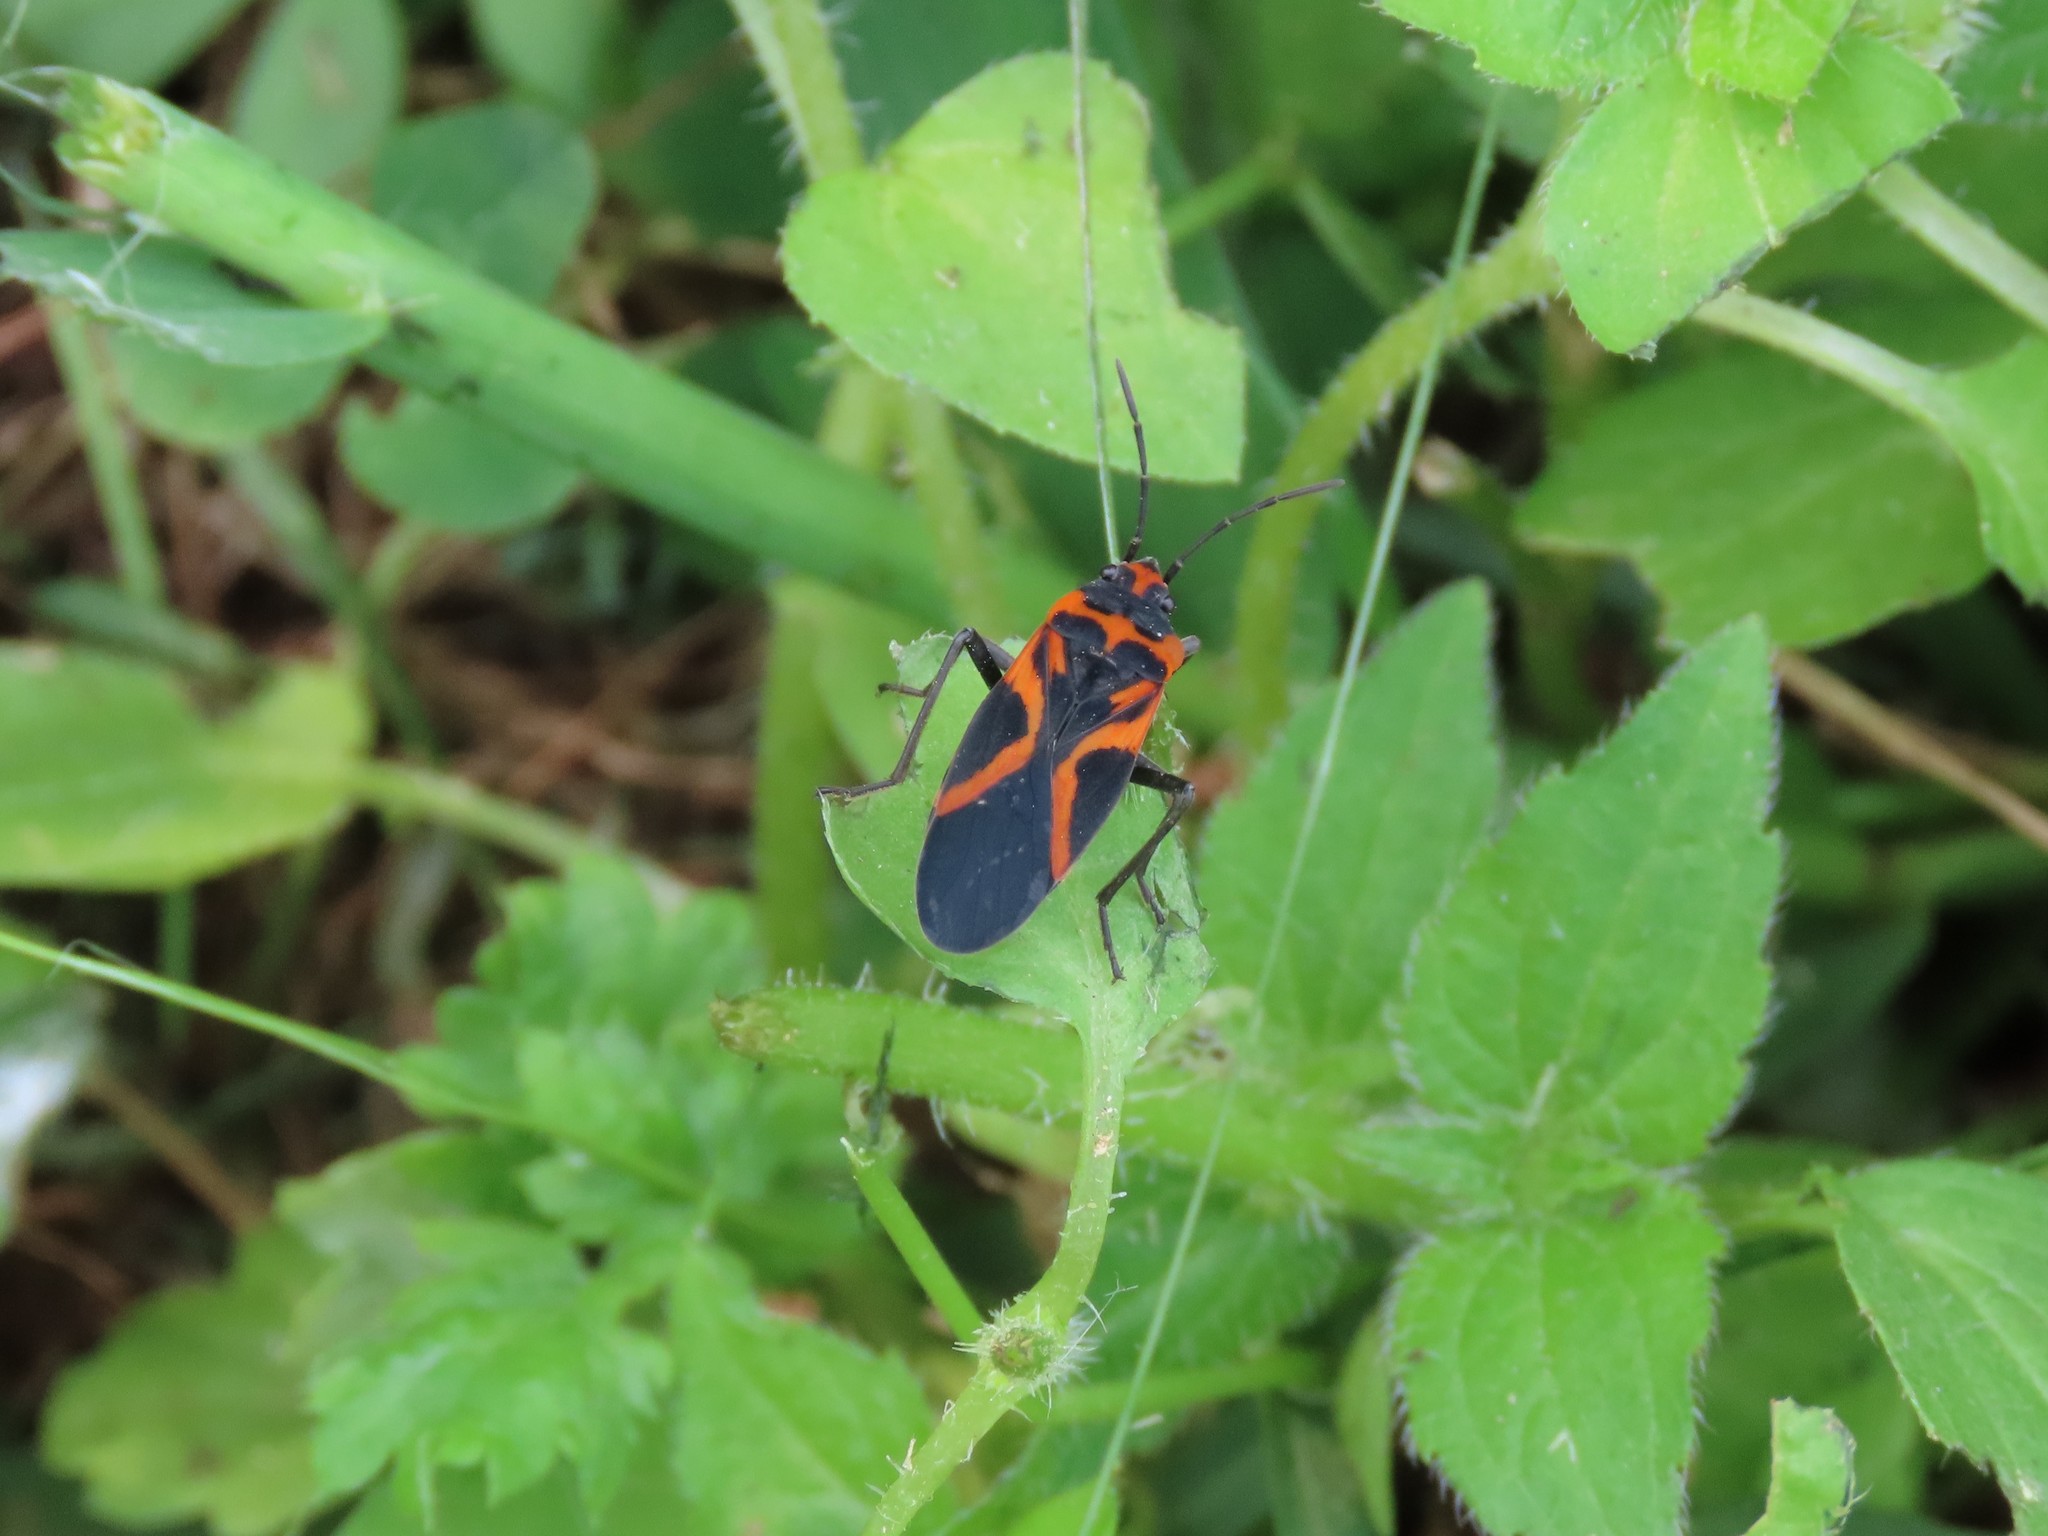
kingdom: Animalia
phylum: Arthropoda
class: Insecta
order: Hemiptera
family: Lygaeidae
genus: Lygaeus
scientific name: Lygaeus turcicus
